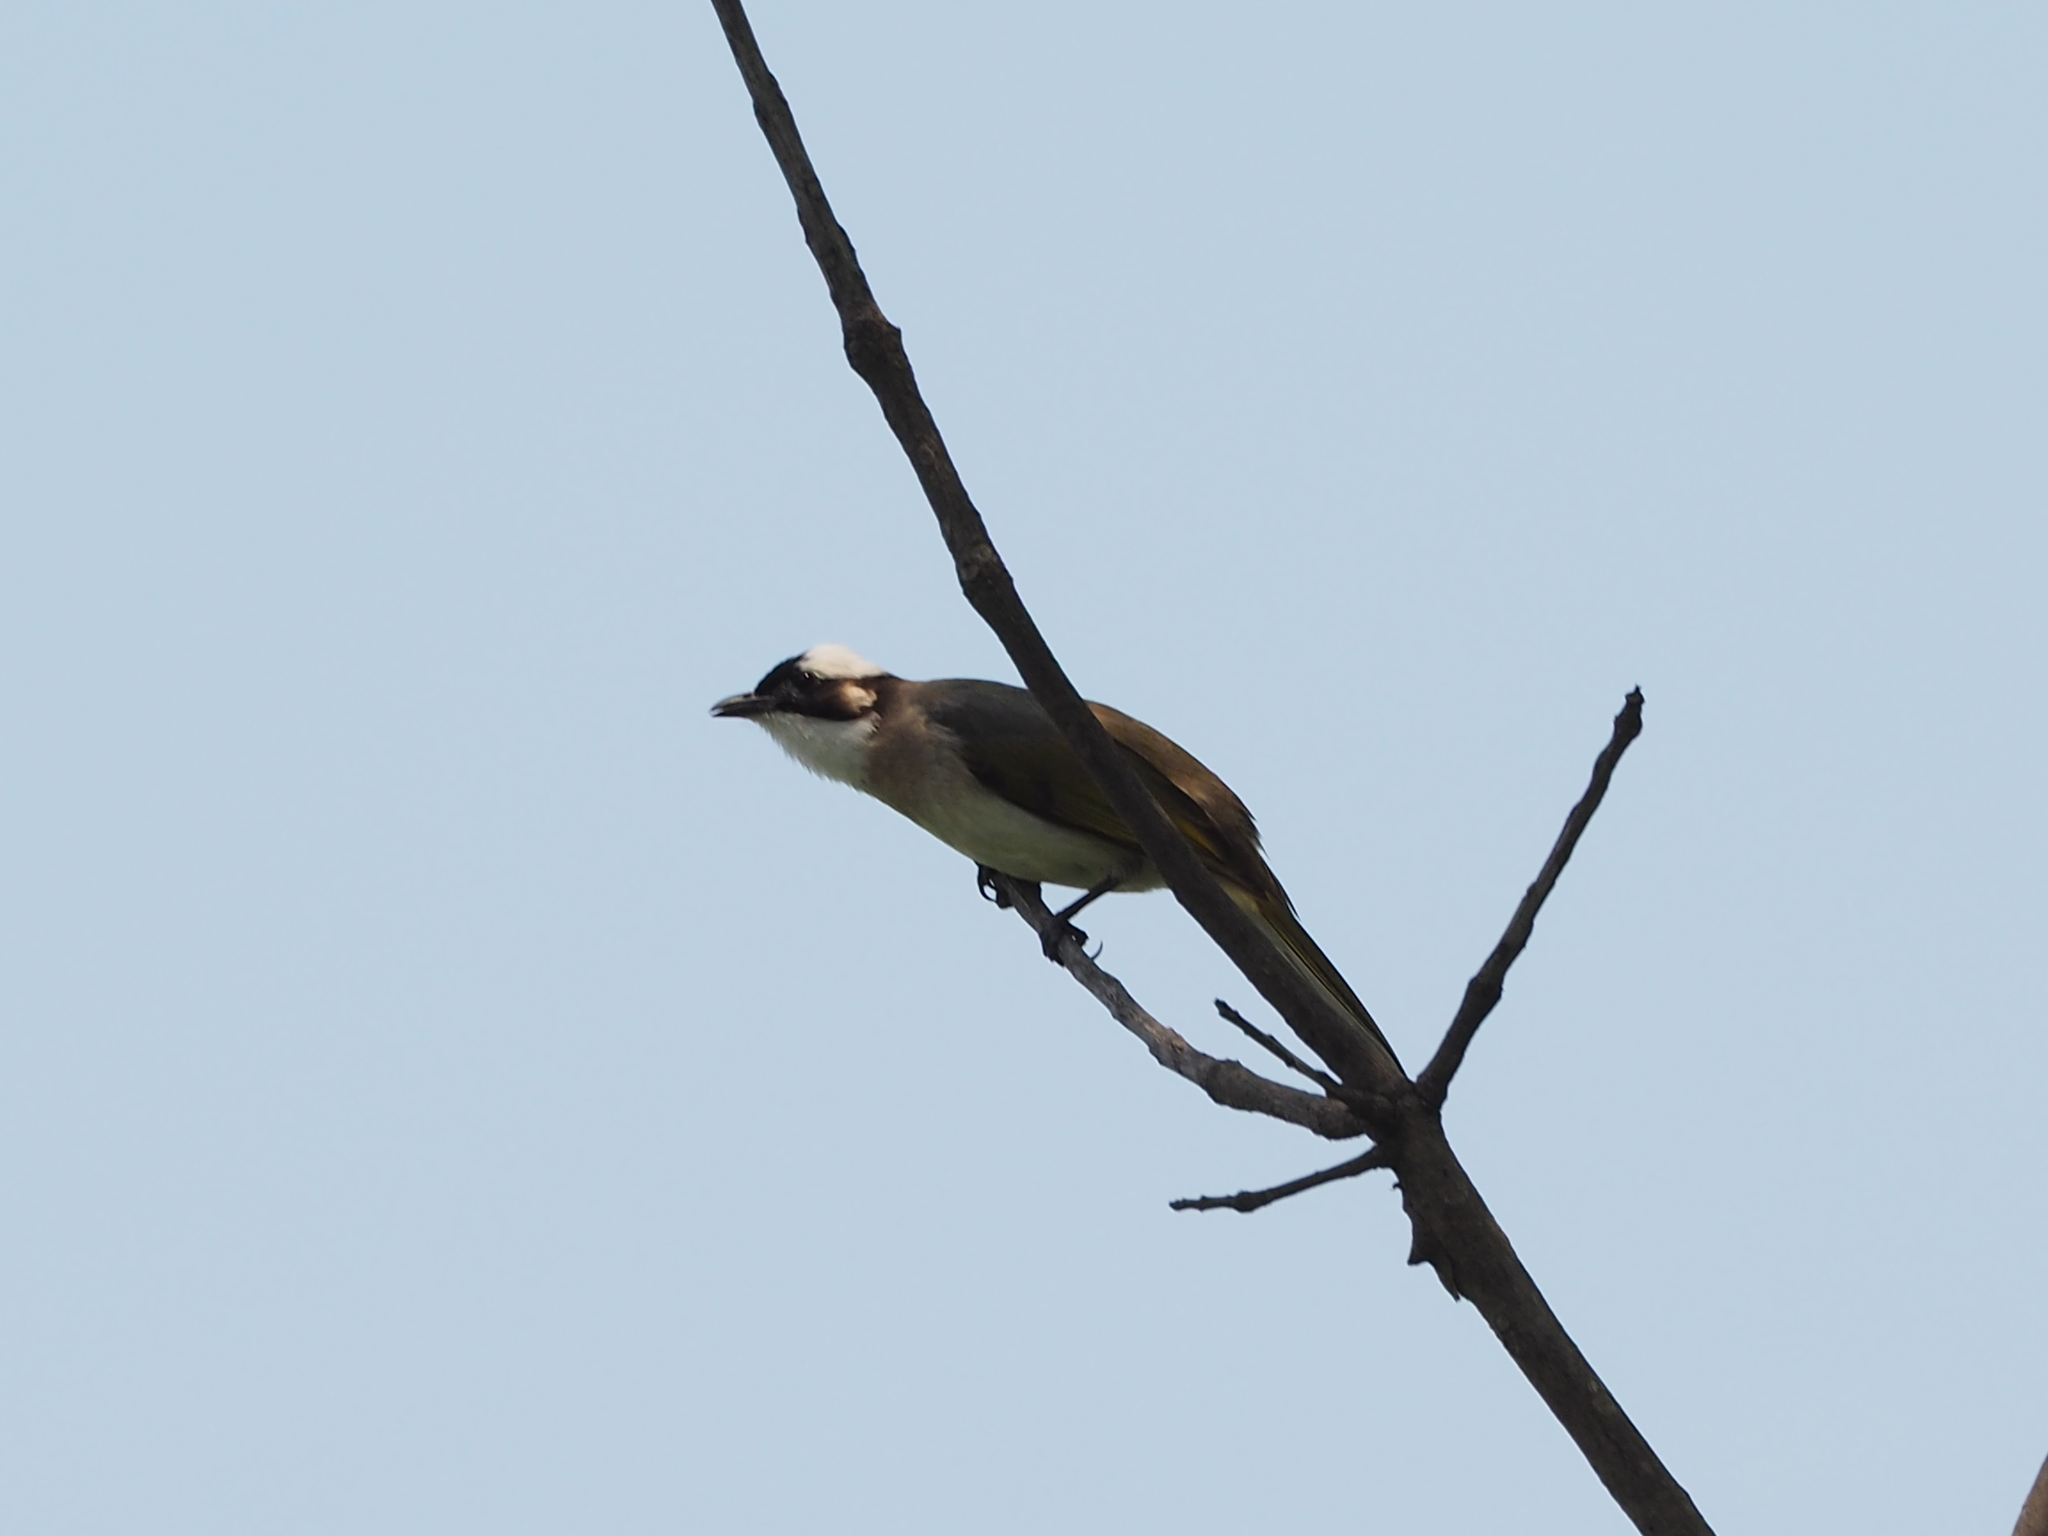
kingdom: Animalia
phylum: Chordata
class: Aves
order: Passeriformes
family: Pycnonotidae
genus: Pycnonotus
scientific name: Pycnonotus sinensis
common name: Light-vented bulbul
